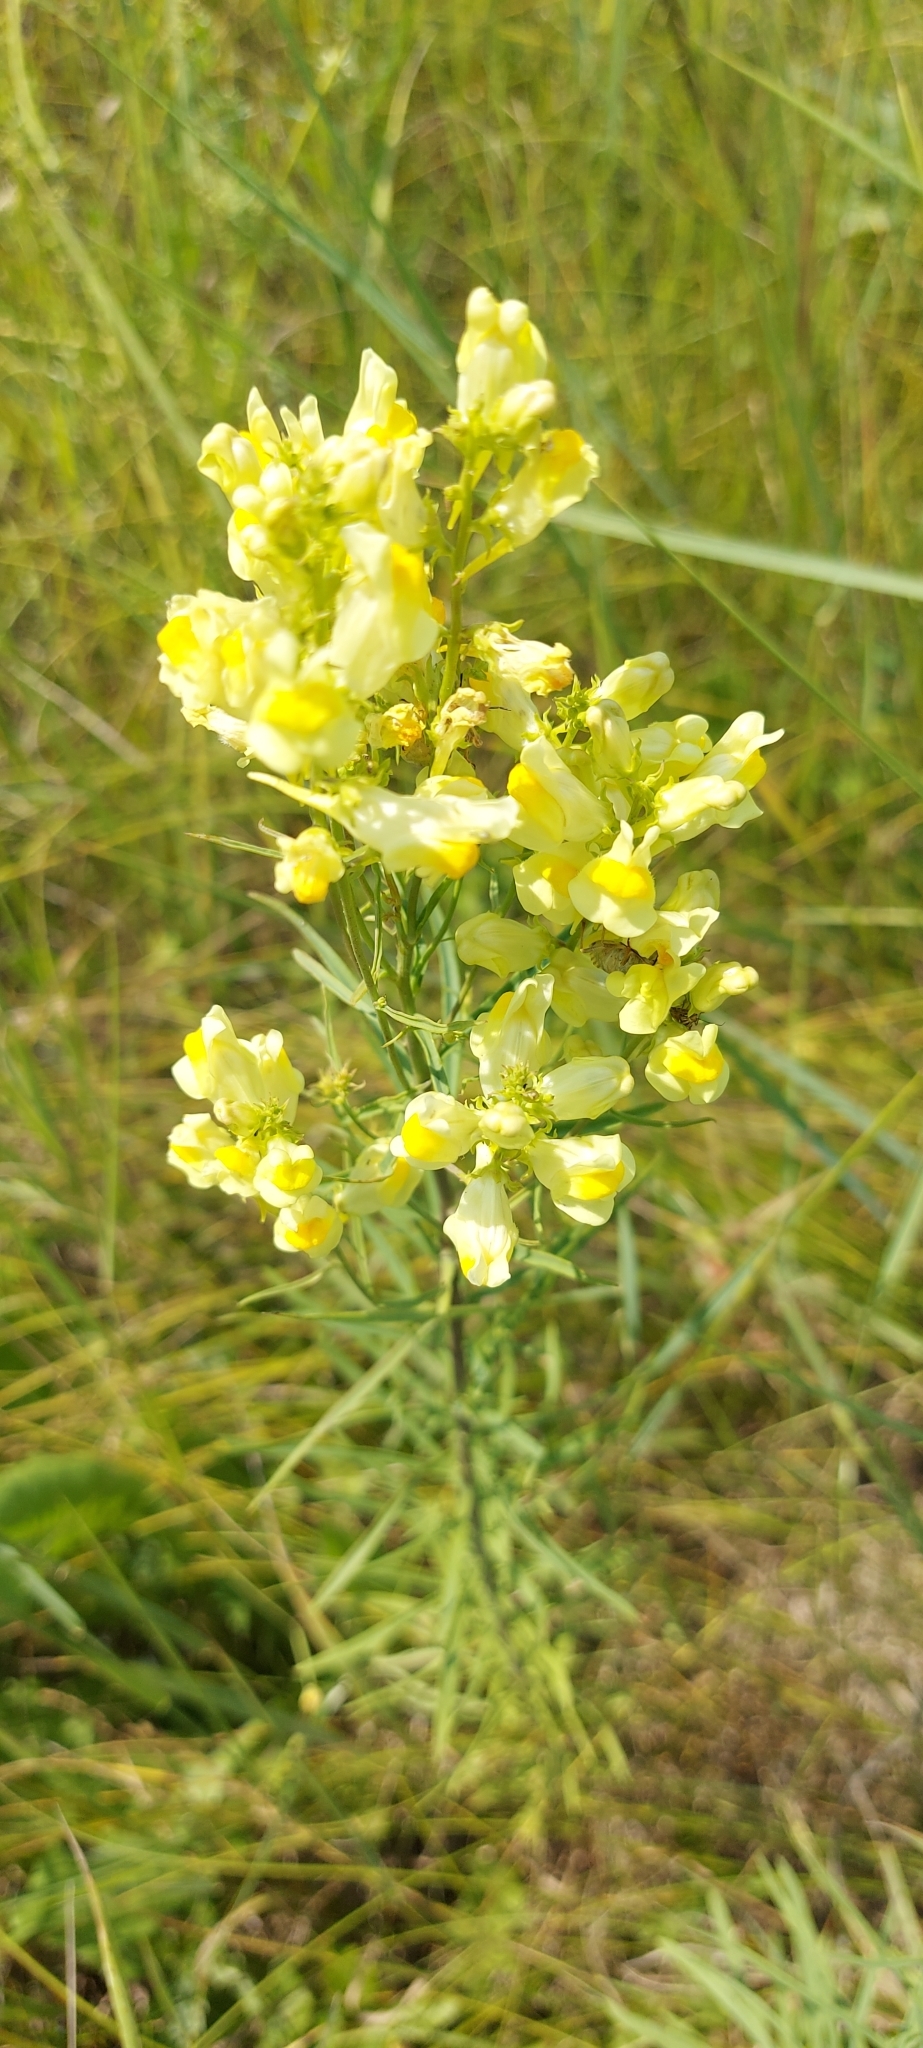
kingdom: Plantae
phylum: Tracheophyta
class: Magnoliopsida
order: Lamiales
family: Plantaginaceae
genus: Linaria
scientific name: Linaria vulgaris
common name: Butter and eggs
